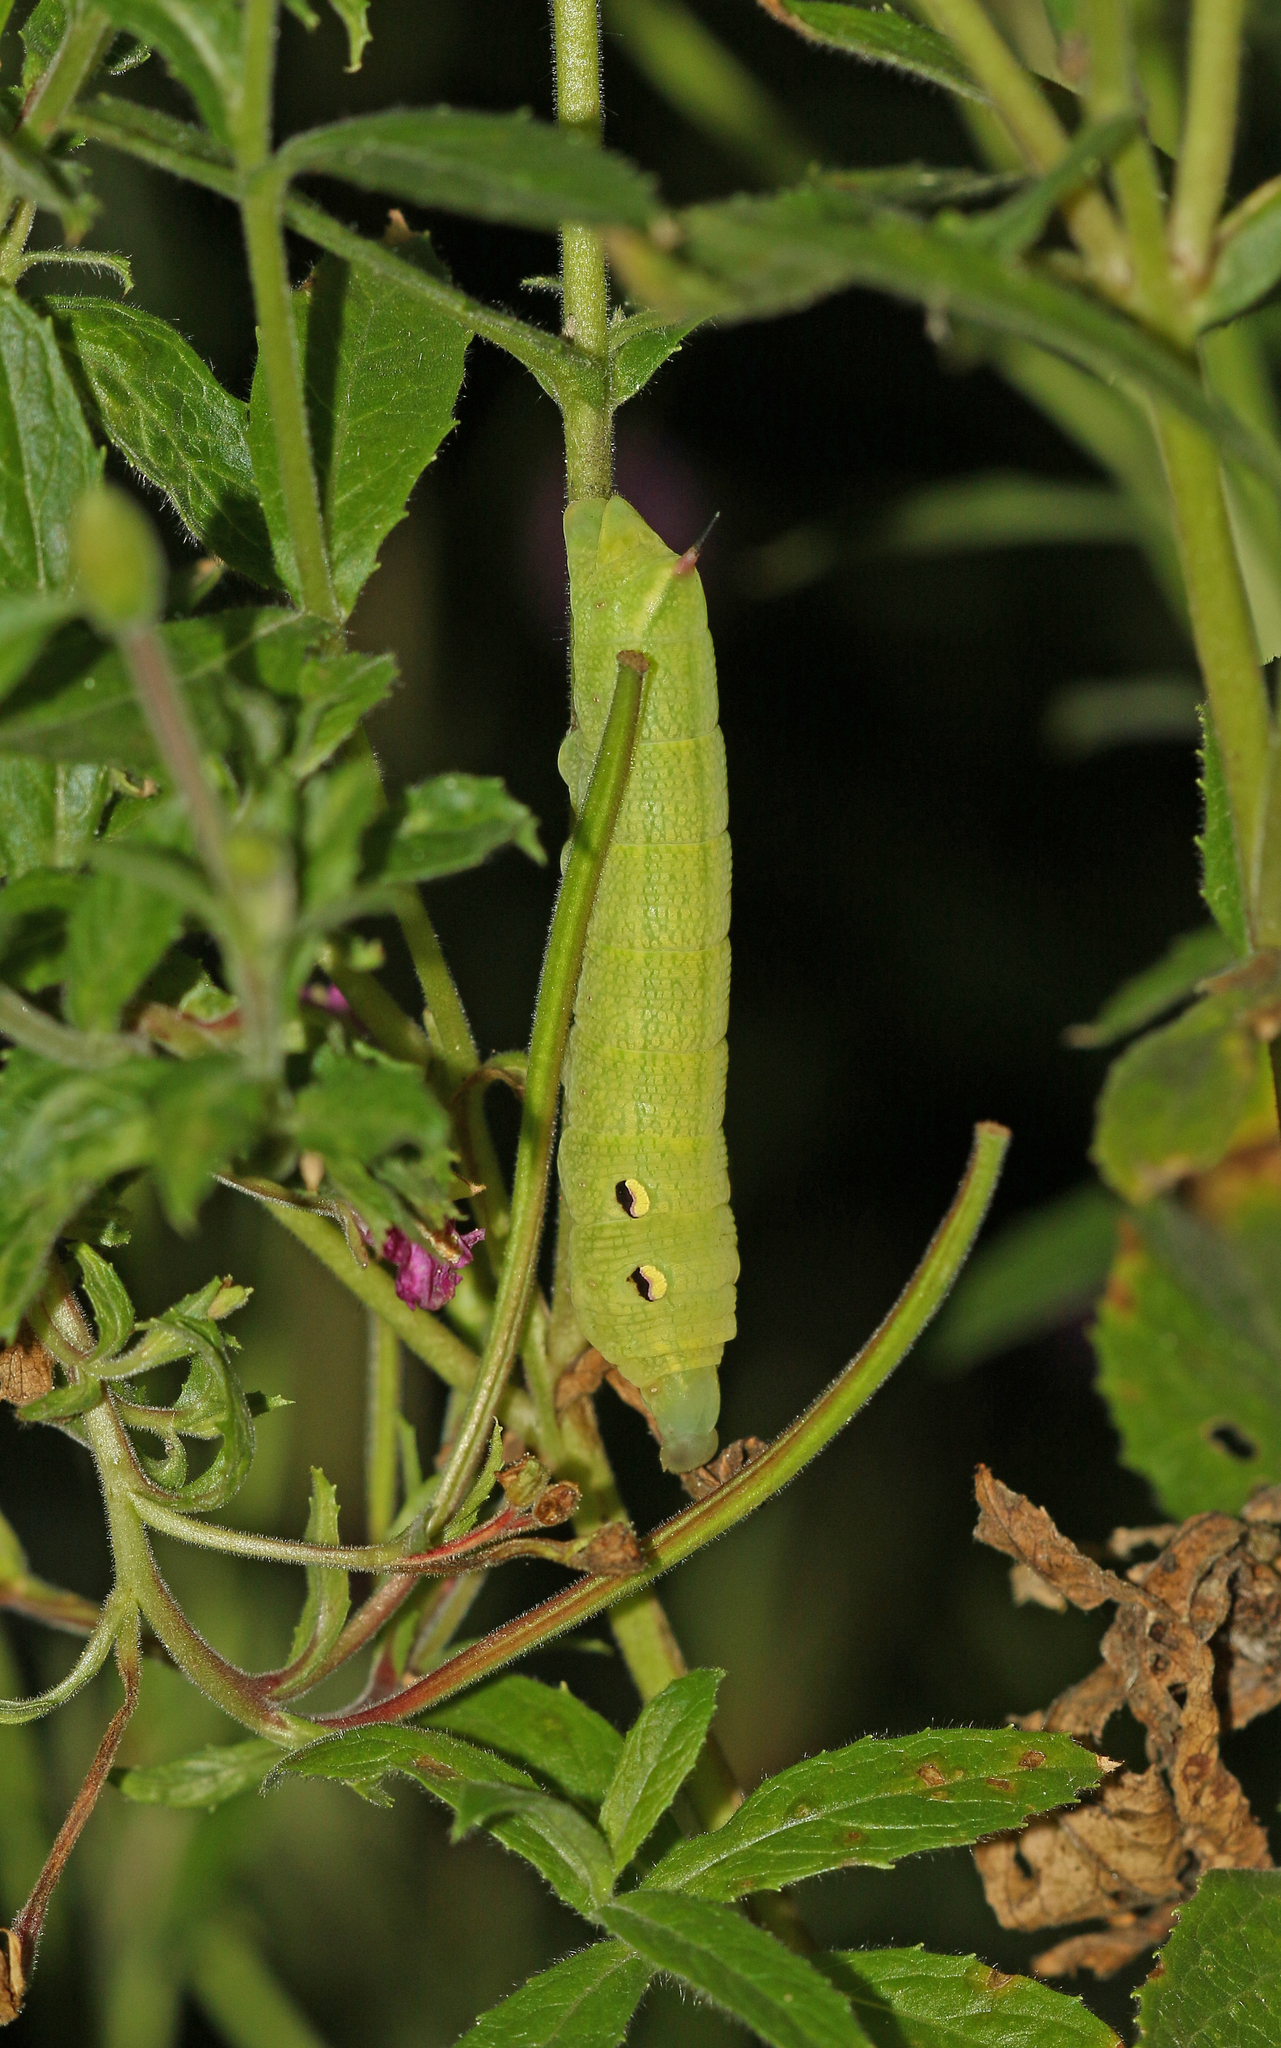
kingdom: Animalia
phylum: Arthropoda
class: Insecta
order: Lepidoptera
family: Sphingidae
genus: Deilephila
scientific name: Deilephila elpenor
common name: Elephant hawk-moth
